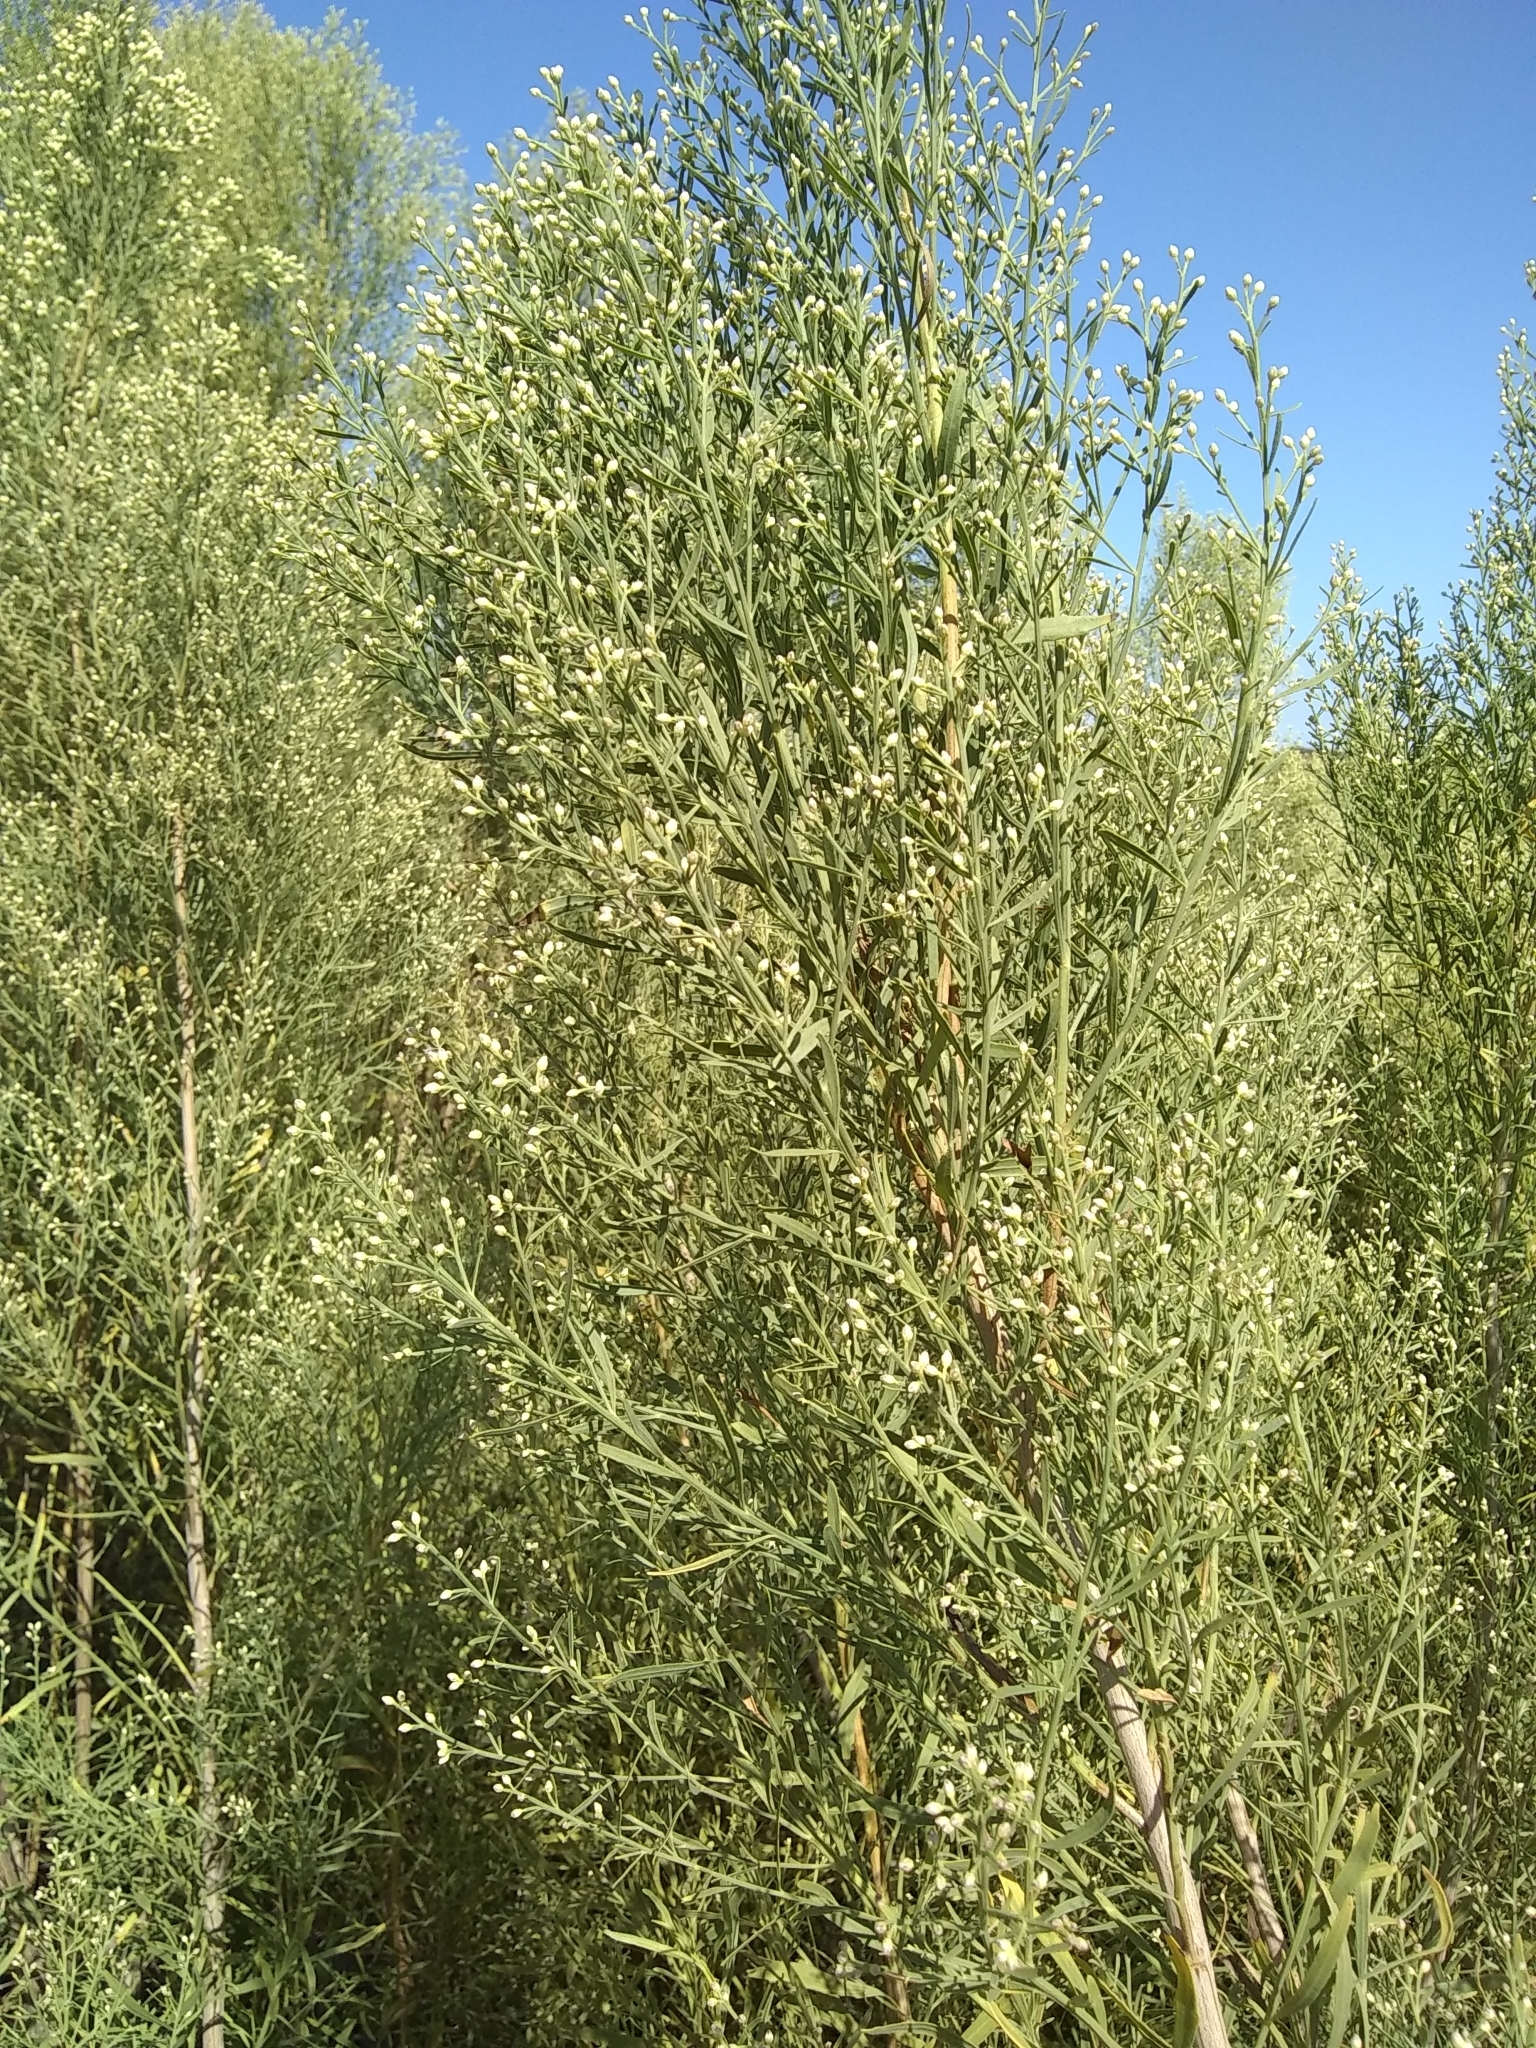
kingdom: Plantae
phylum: Tracheophyta
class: Magnoliopsida
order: Asterales
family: Asteraceae
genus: Baccharis
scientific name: Baccharis neglecta
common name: Roosevelt-weed
